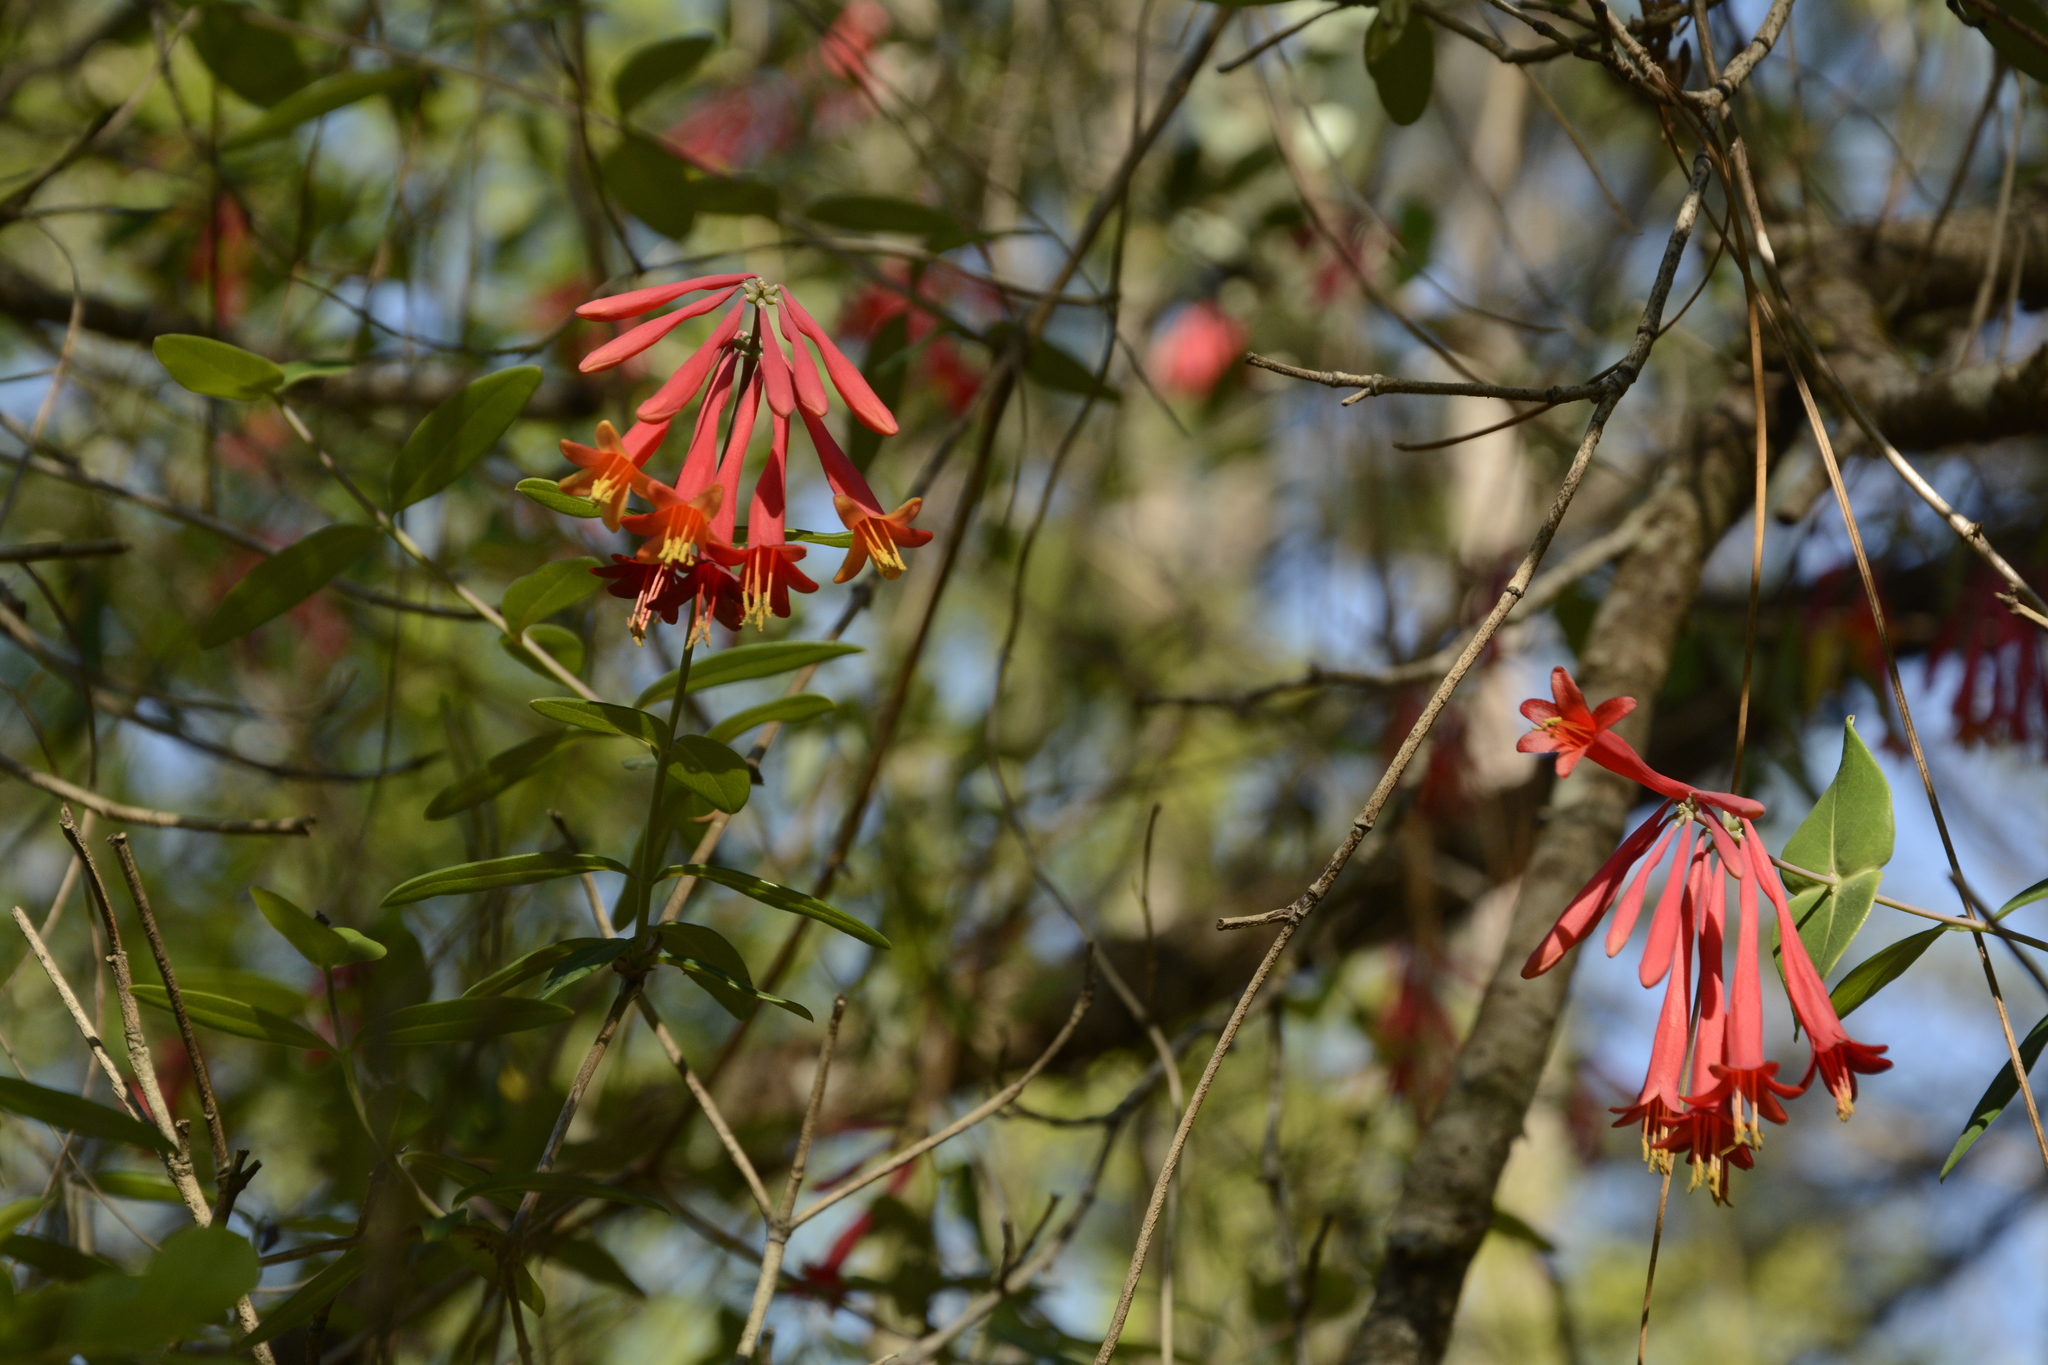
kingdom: Plantae
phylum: Tracheophyta
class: Magnoliopsida
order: Dipsacales
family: Caprifoliaceae
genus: Lonicera
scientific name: Lonicera sempervirens
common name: Coral honeysuckle
